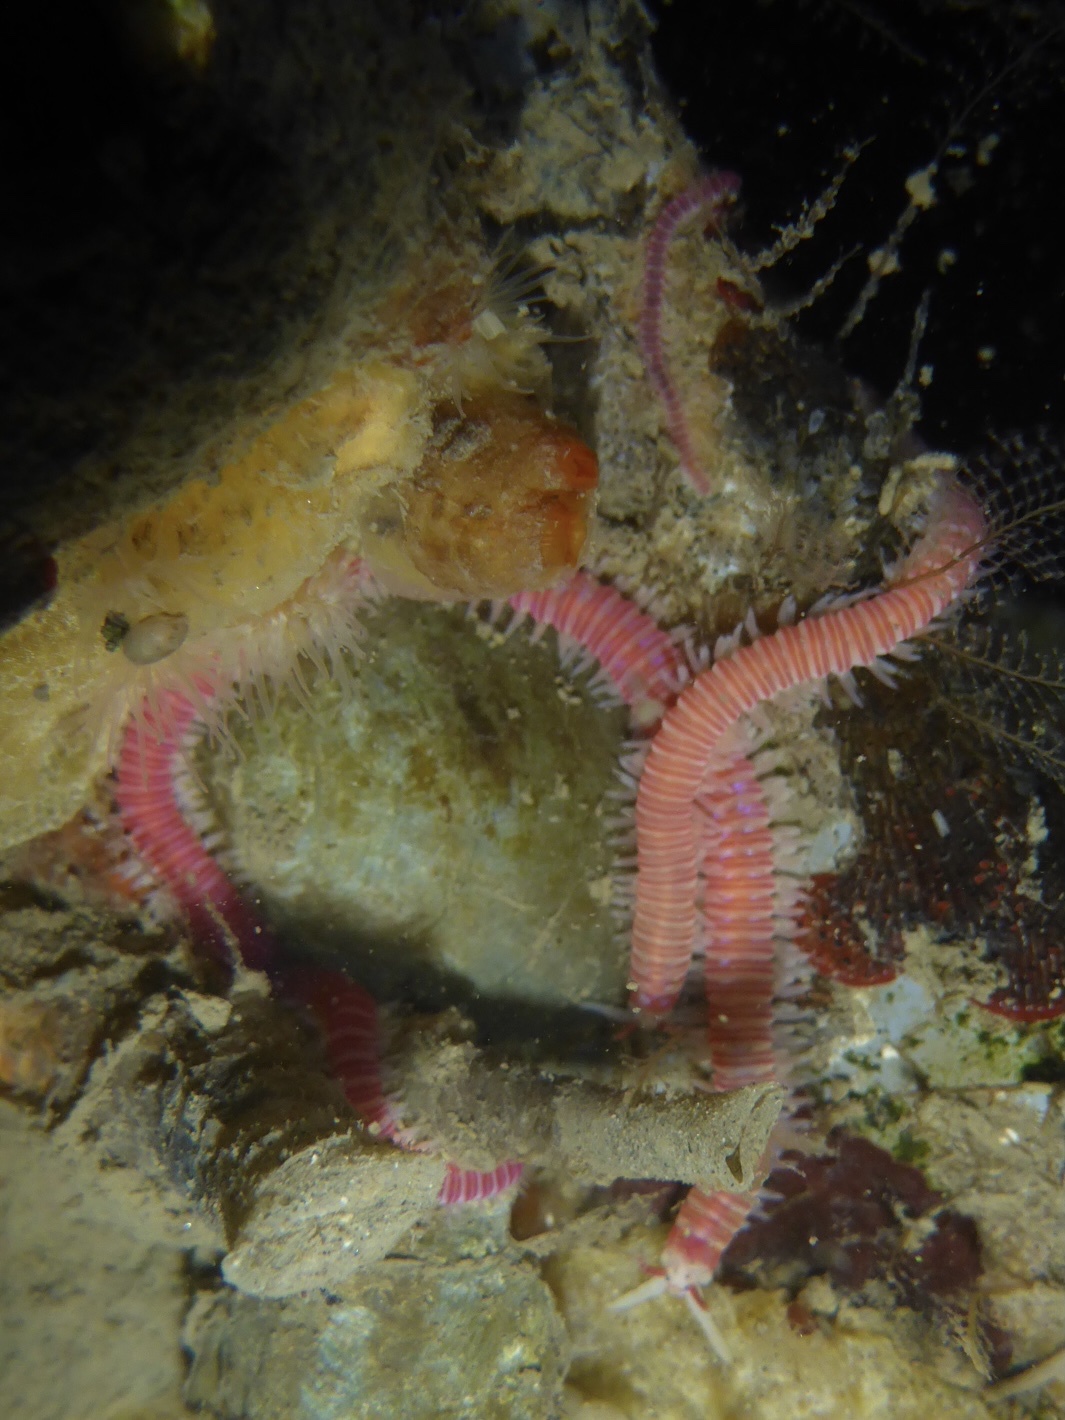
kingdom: Animalia
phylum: Annelida
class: Polychaeta
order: Eunicida
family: Dorvilleidae
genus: Dorvillea
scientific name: Dorvillea moniloceras
